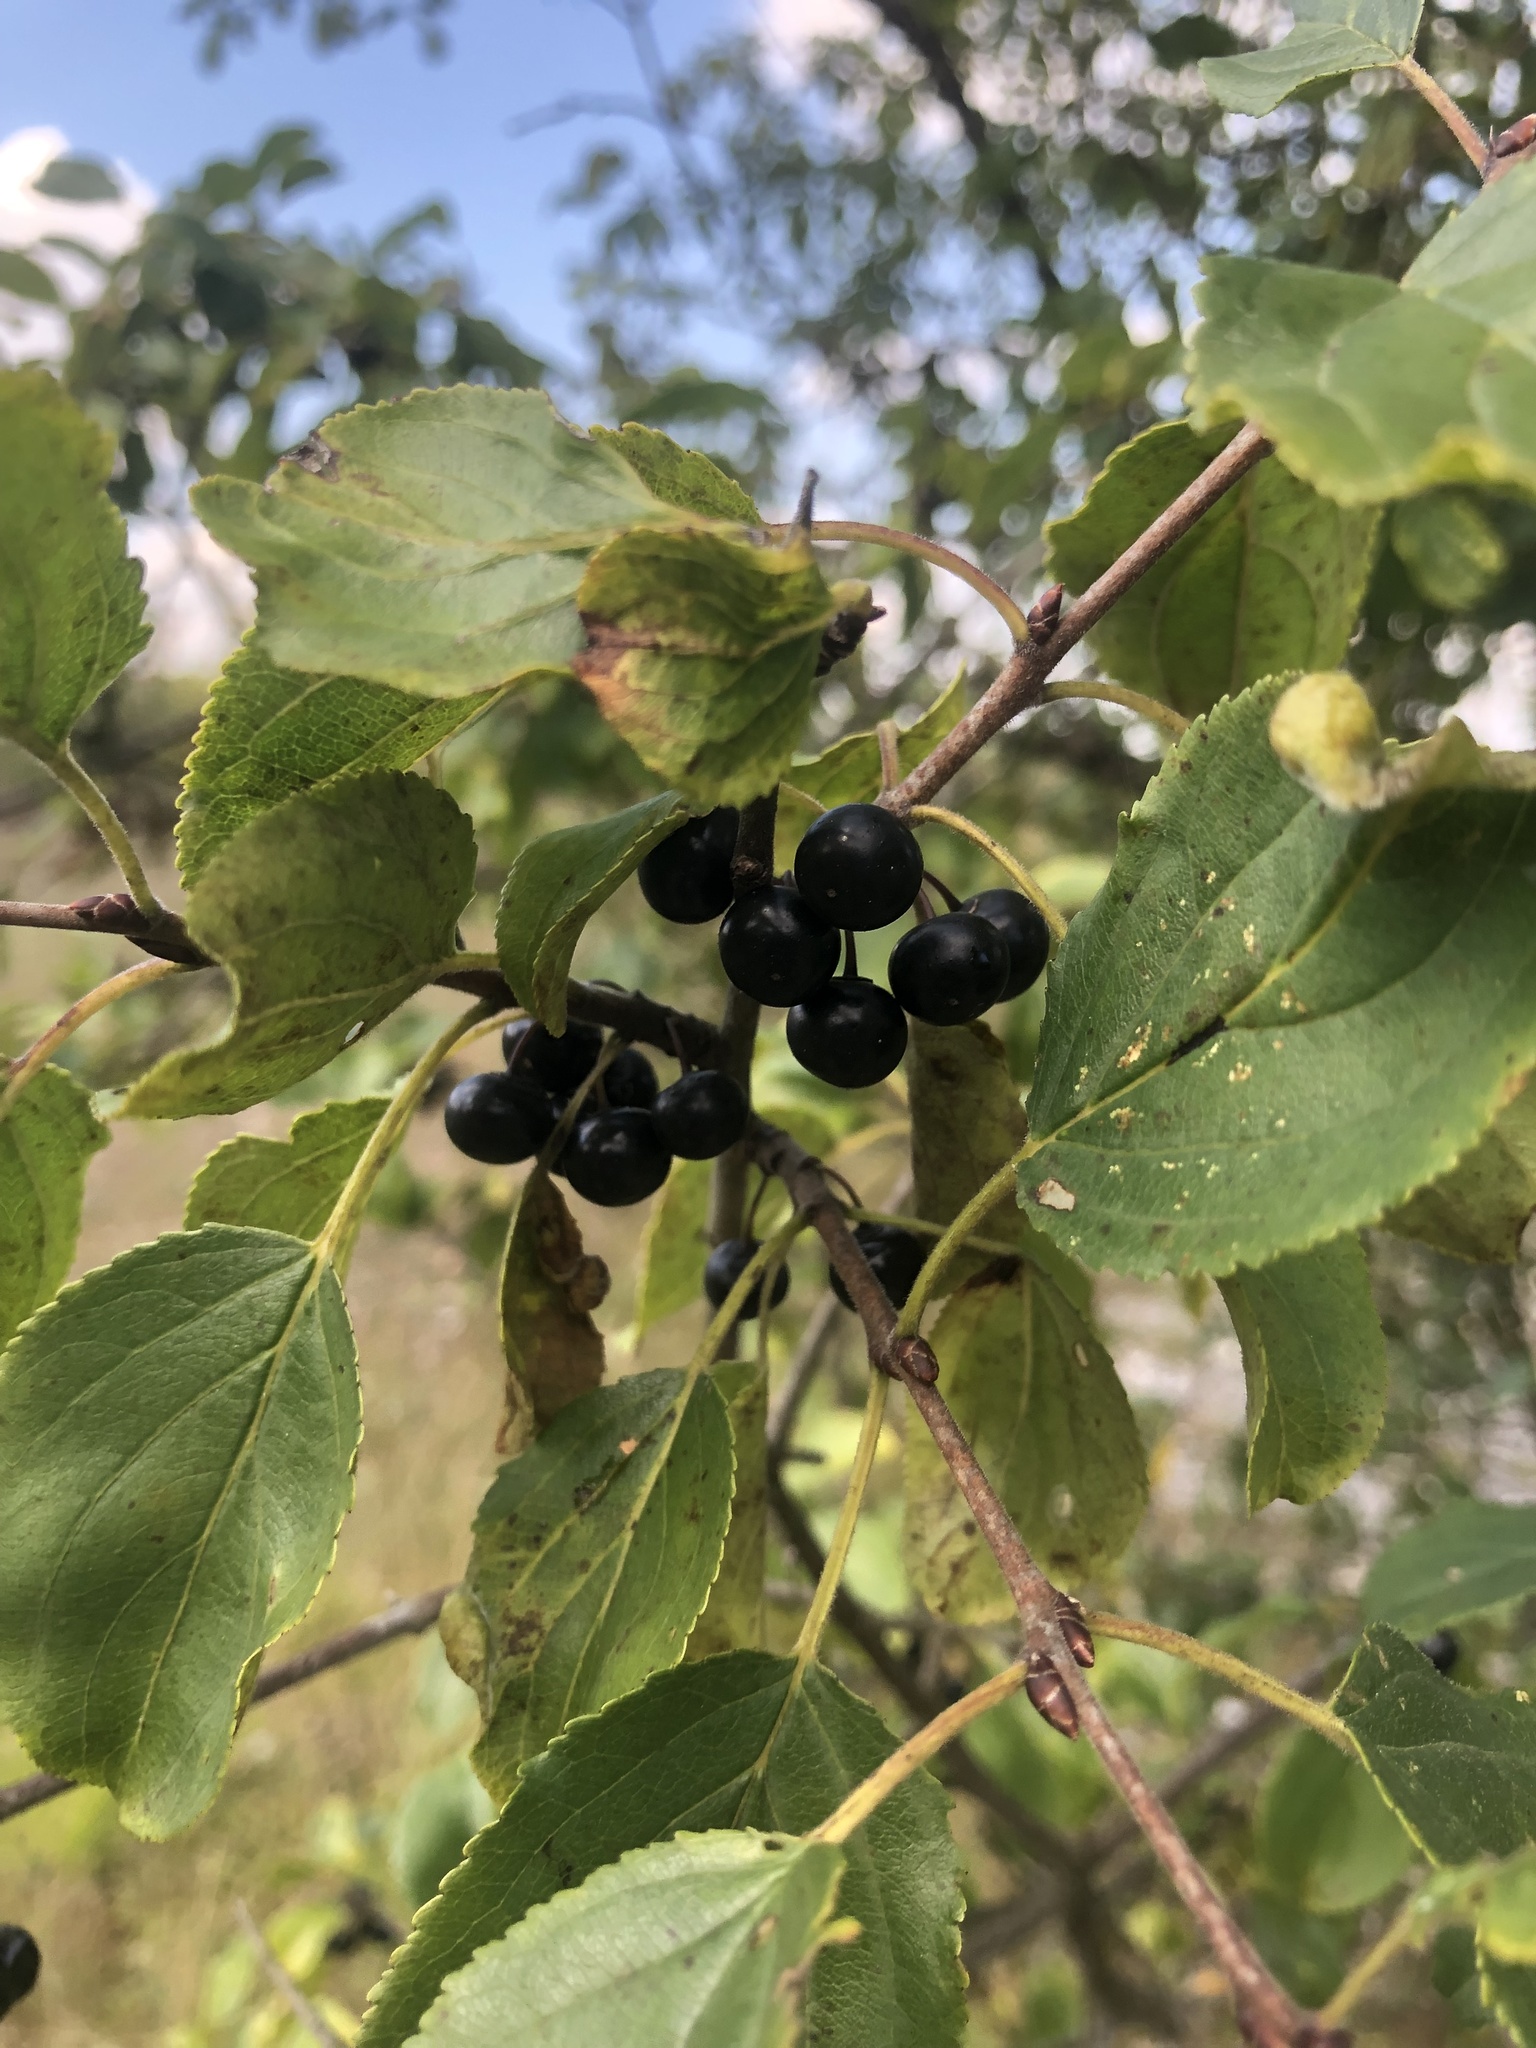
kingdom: Plantae
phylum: Tracheophyta
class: Magnoliopsida
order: Rosales
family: Rhamnaceae
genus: Rhamnus
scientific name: Rhamnus cathartica
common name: Common buckthorn
